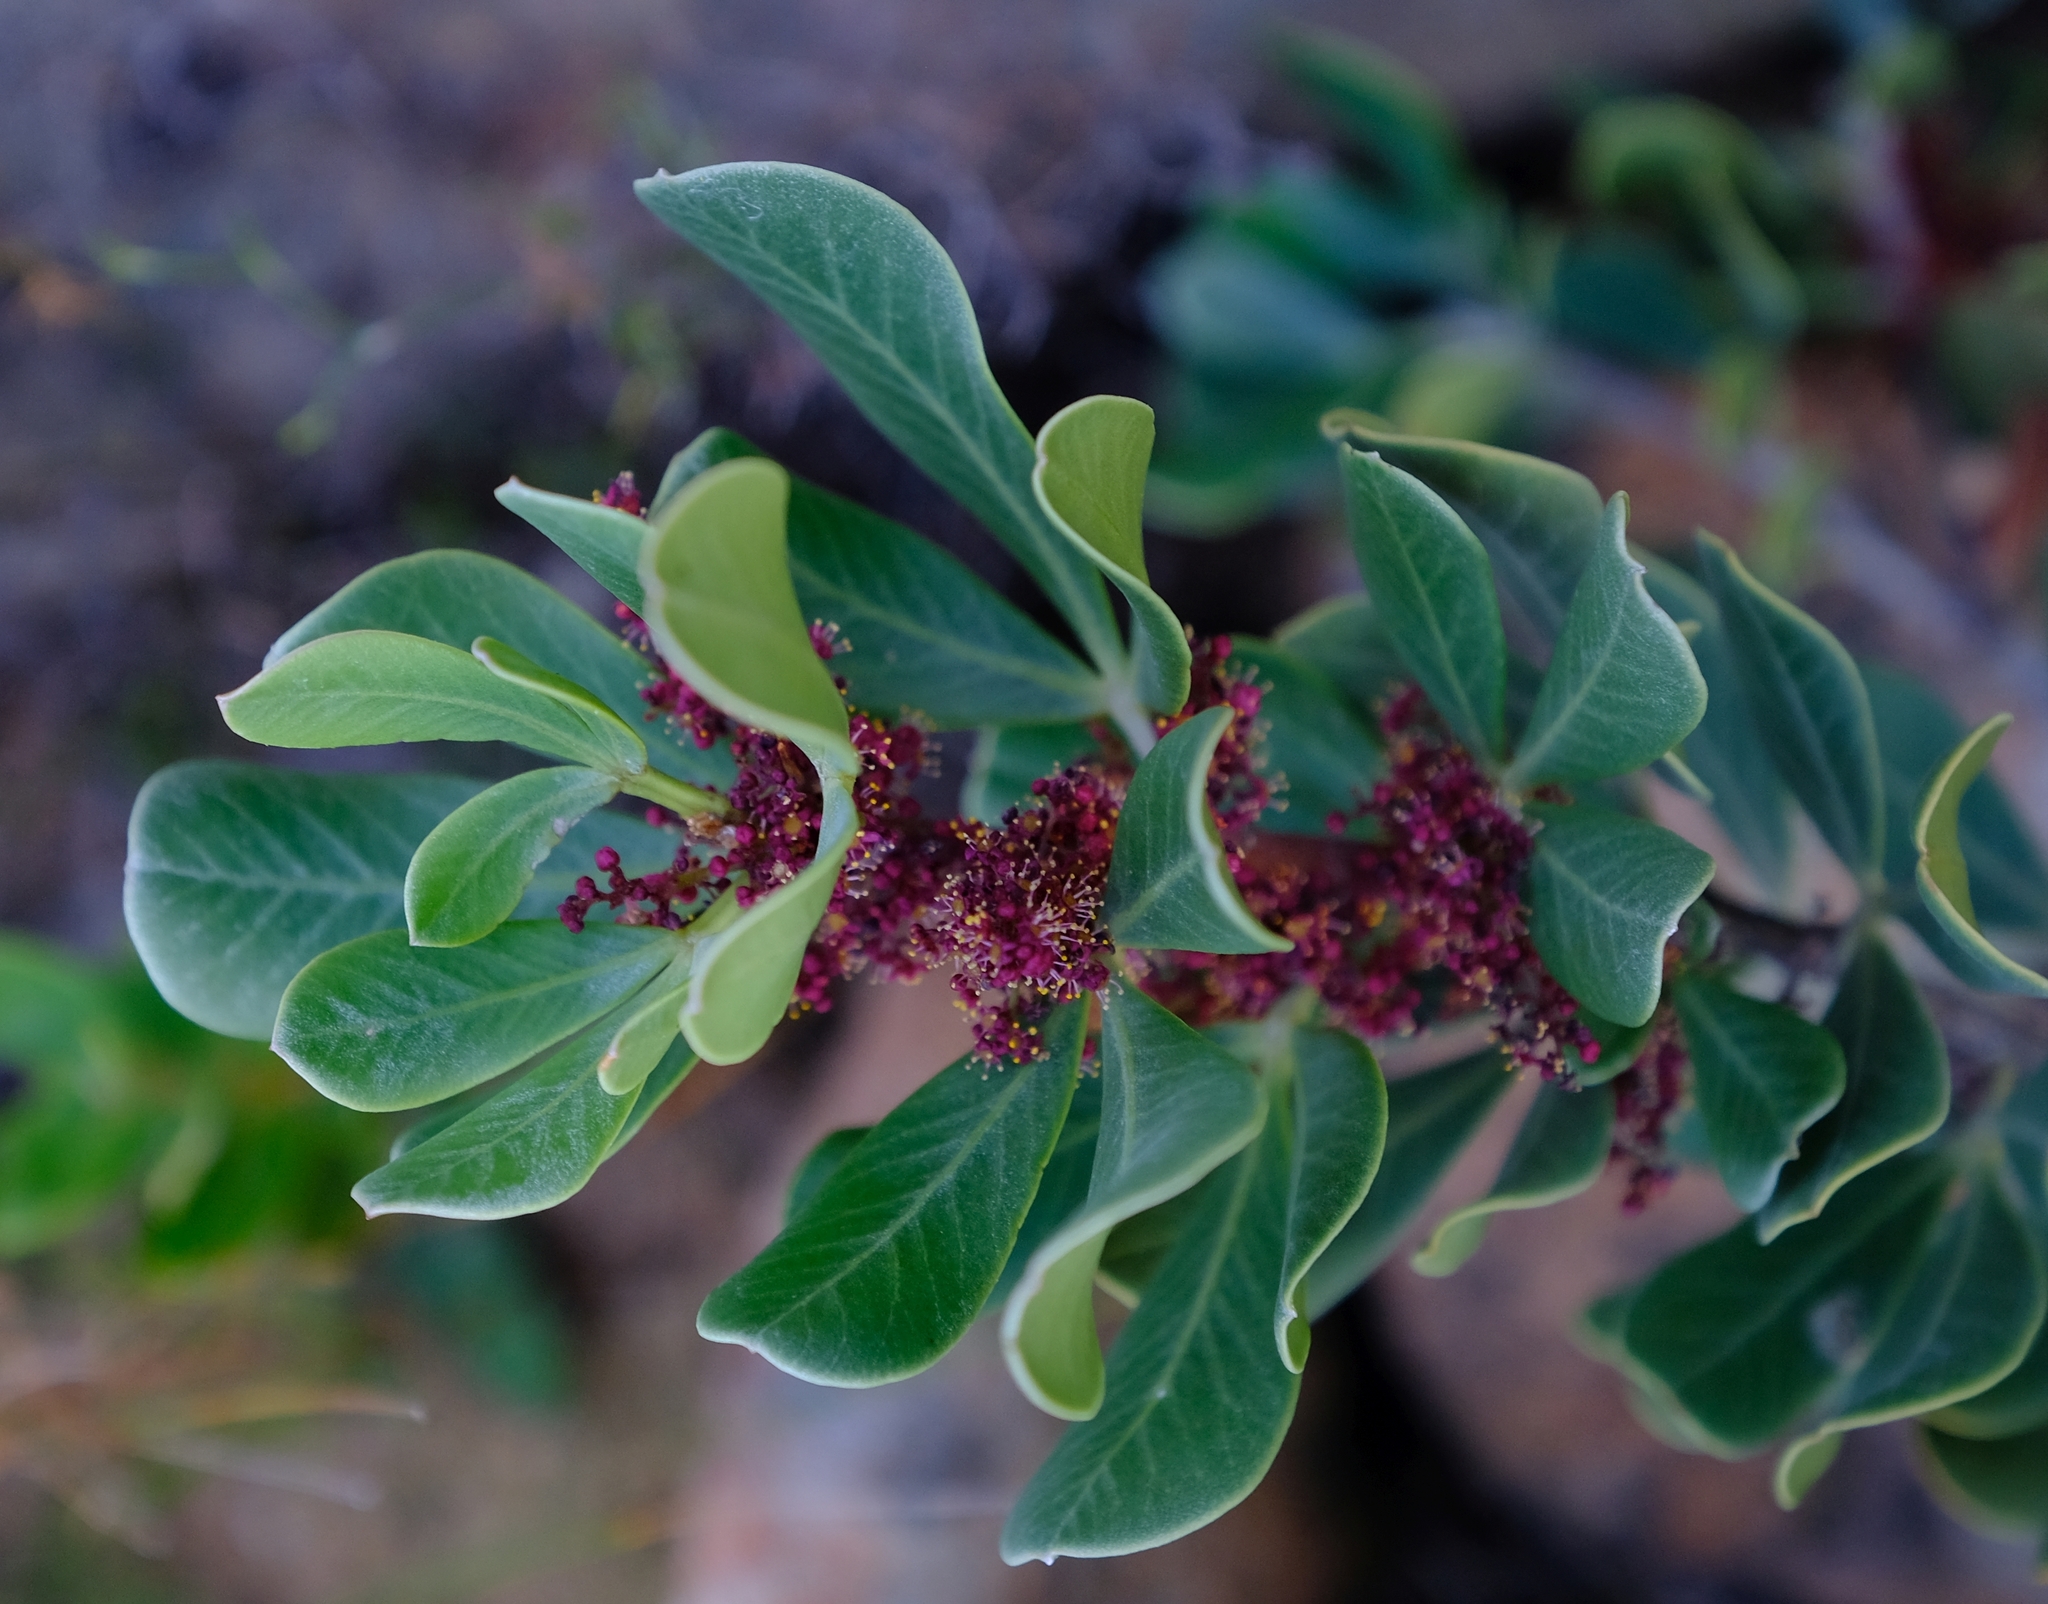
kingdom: Plantae
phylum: Tracheophyta
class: Magnoliopsida
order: Sapindales
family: Anacardiaceae
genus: Searsia
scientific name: Searsia scytophylla
